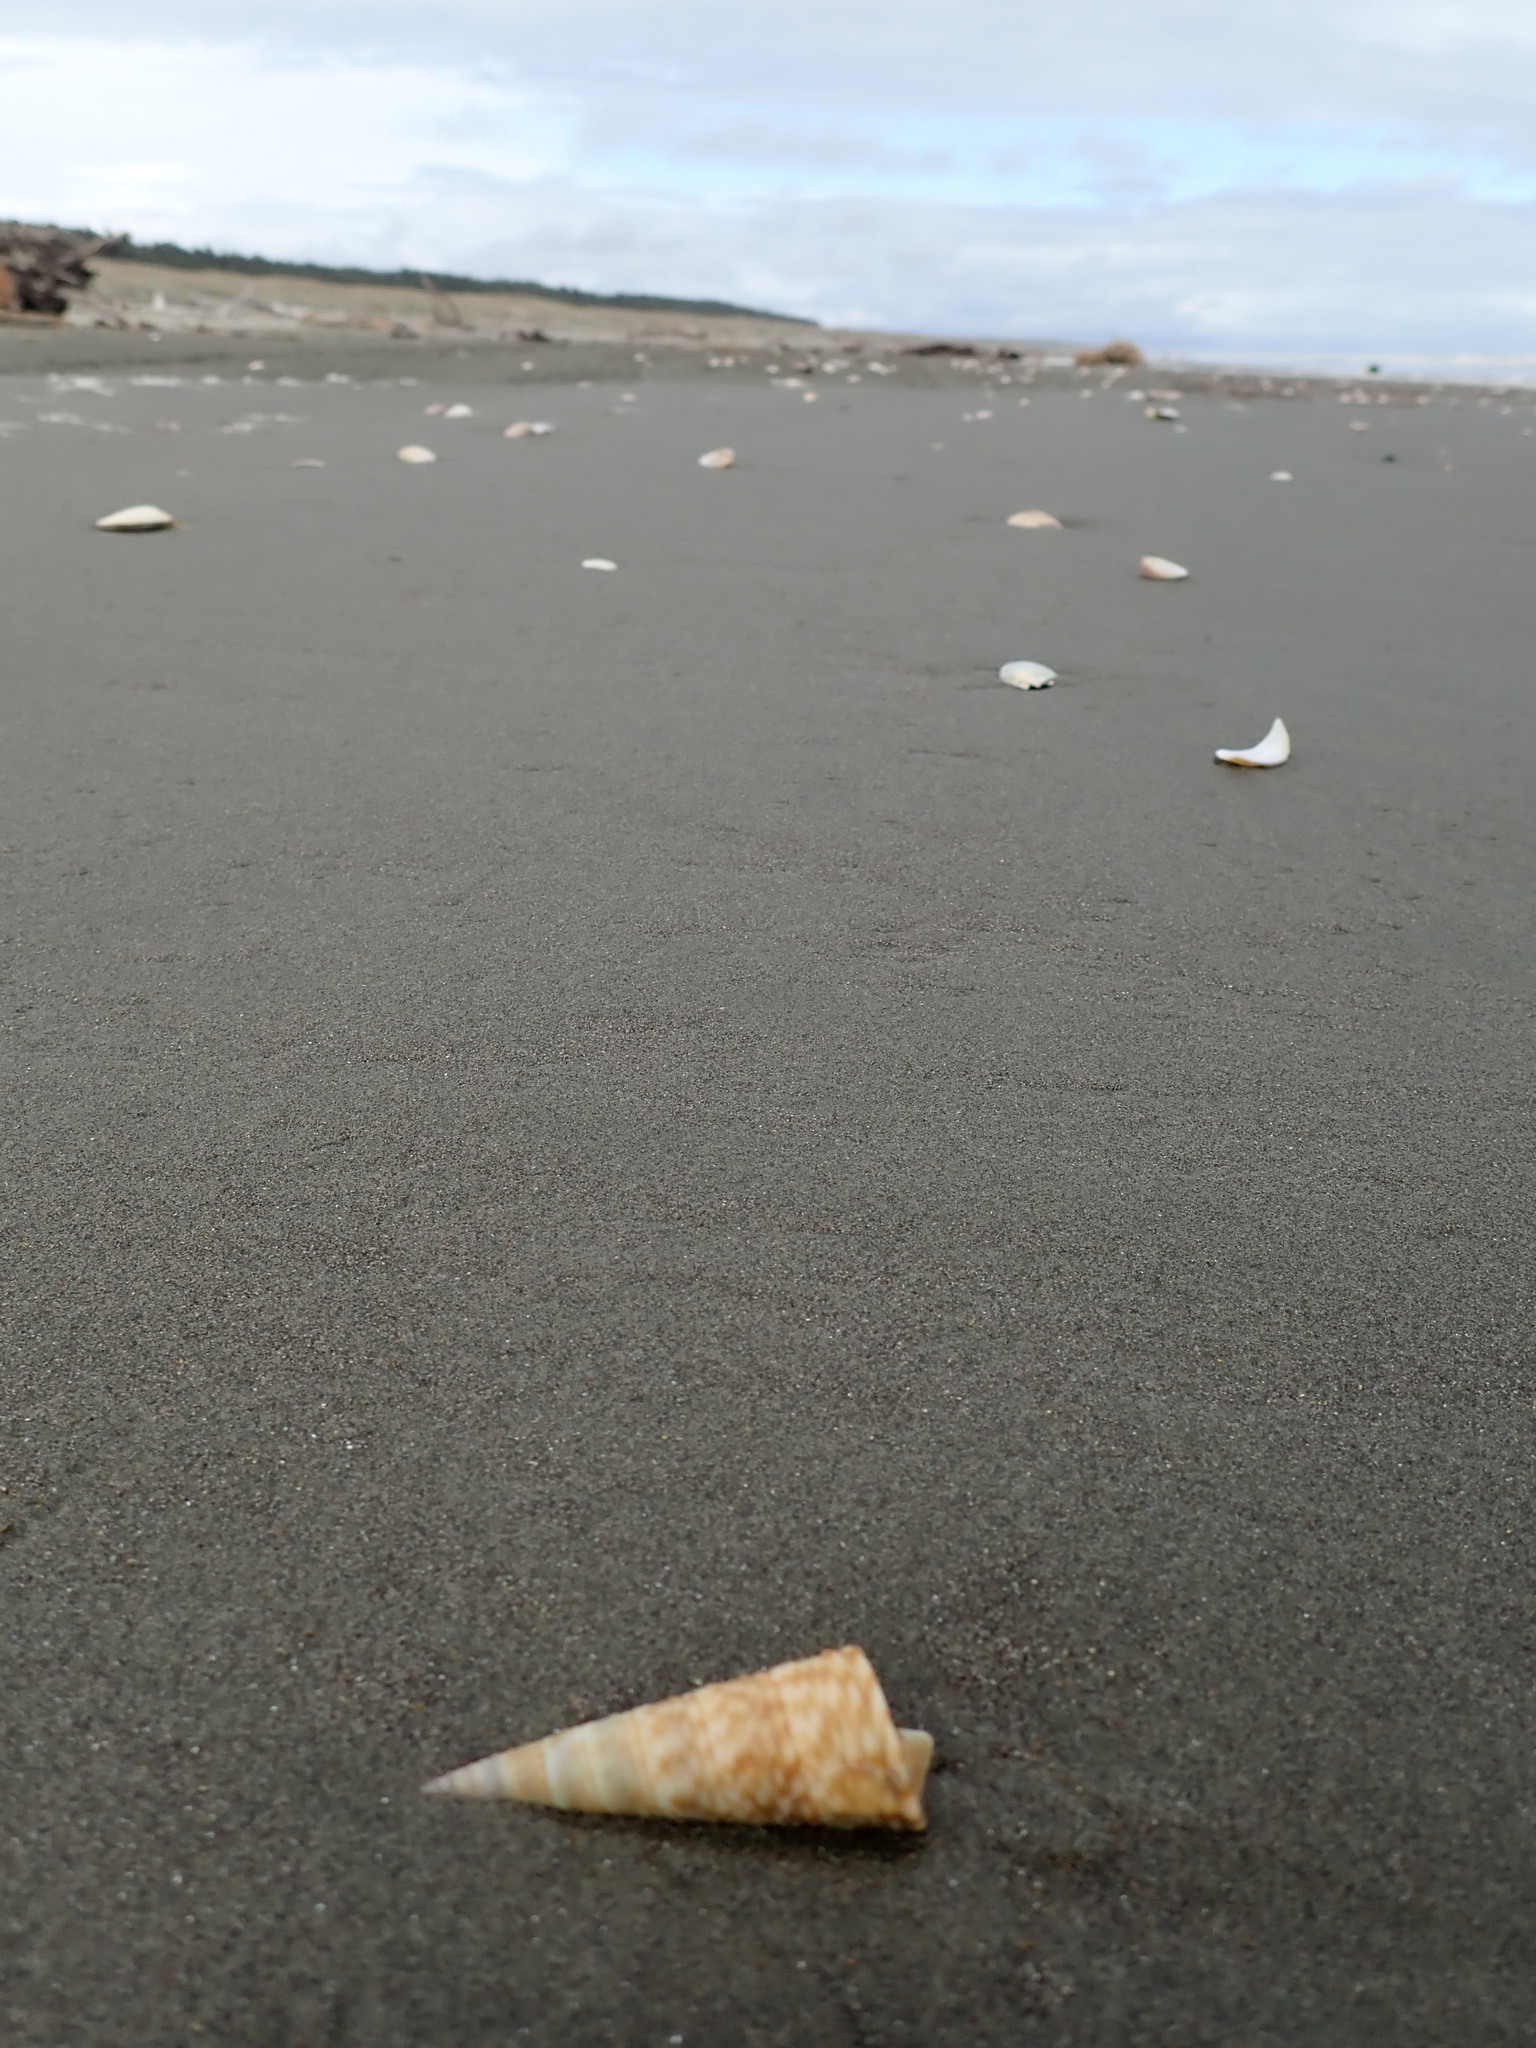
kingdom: Animalia
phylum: Mollusca
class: Gastropoda
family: Turritellidae
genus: Maoricolpus
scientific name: Maoricolpus roseus
